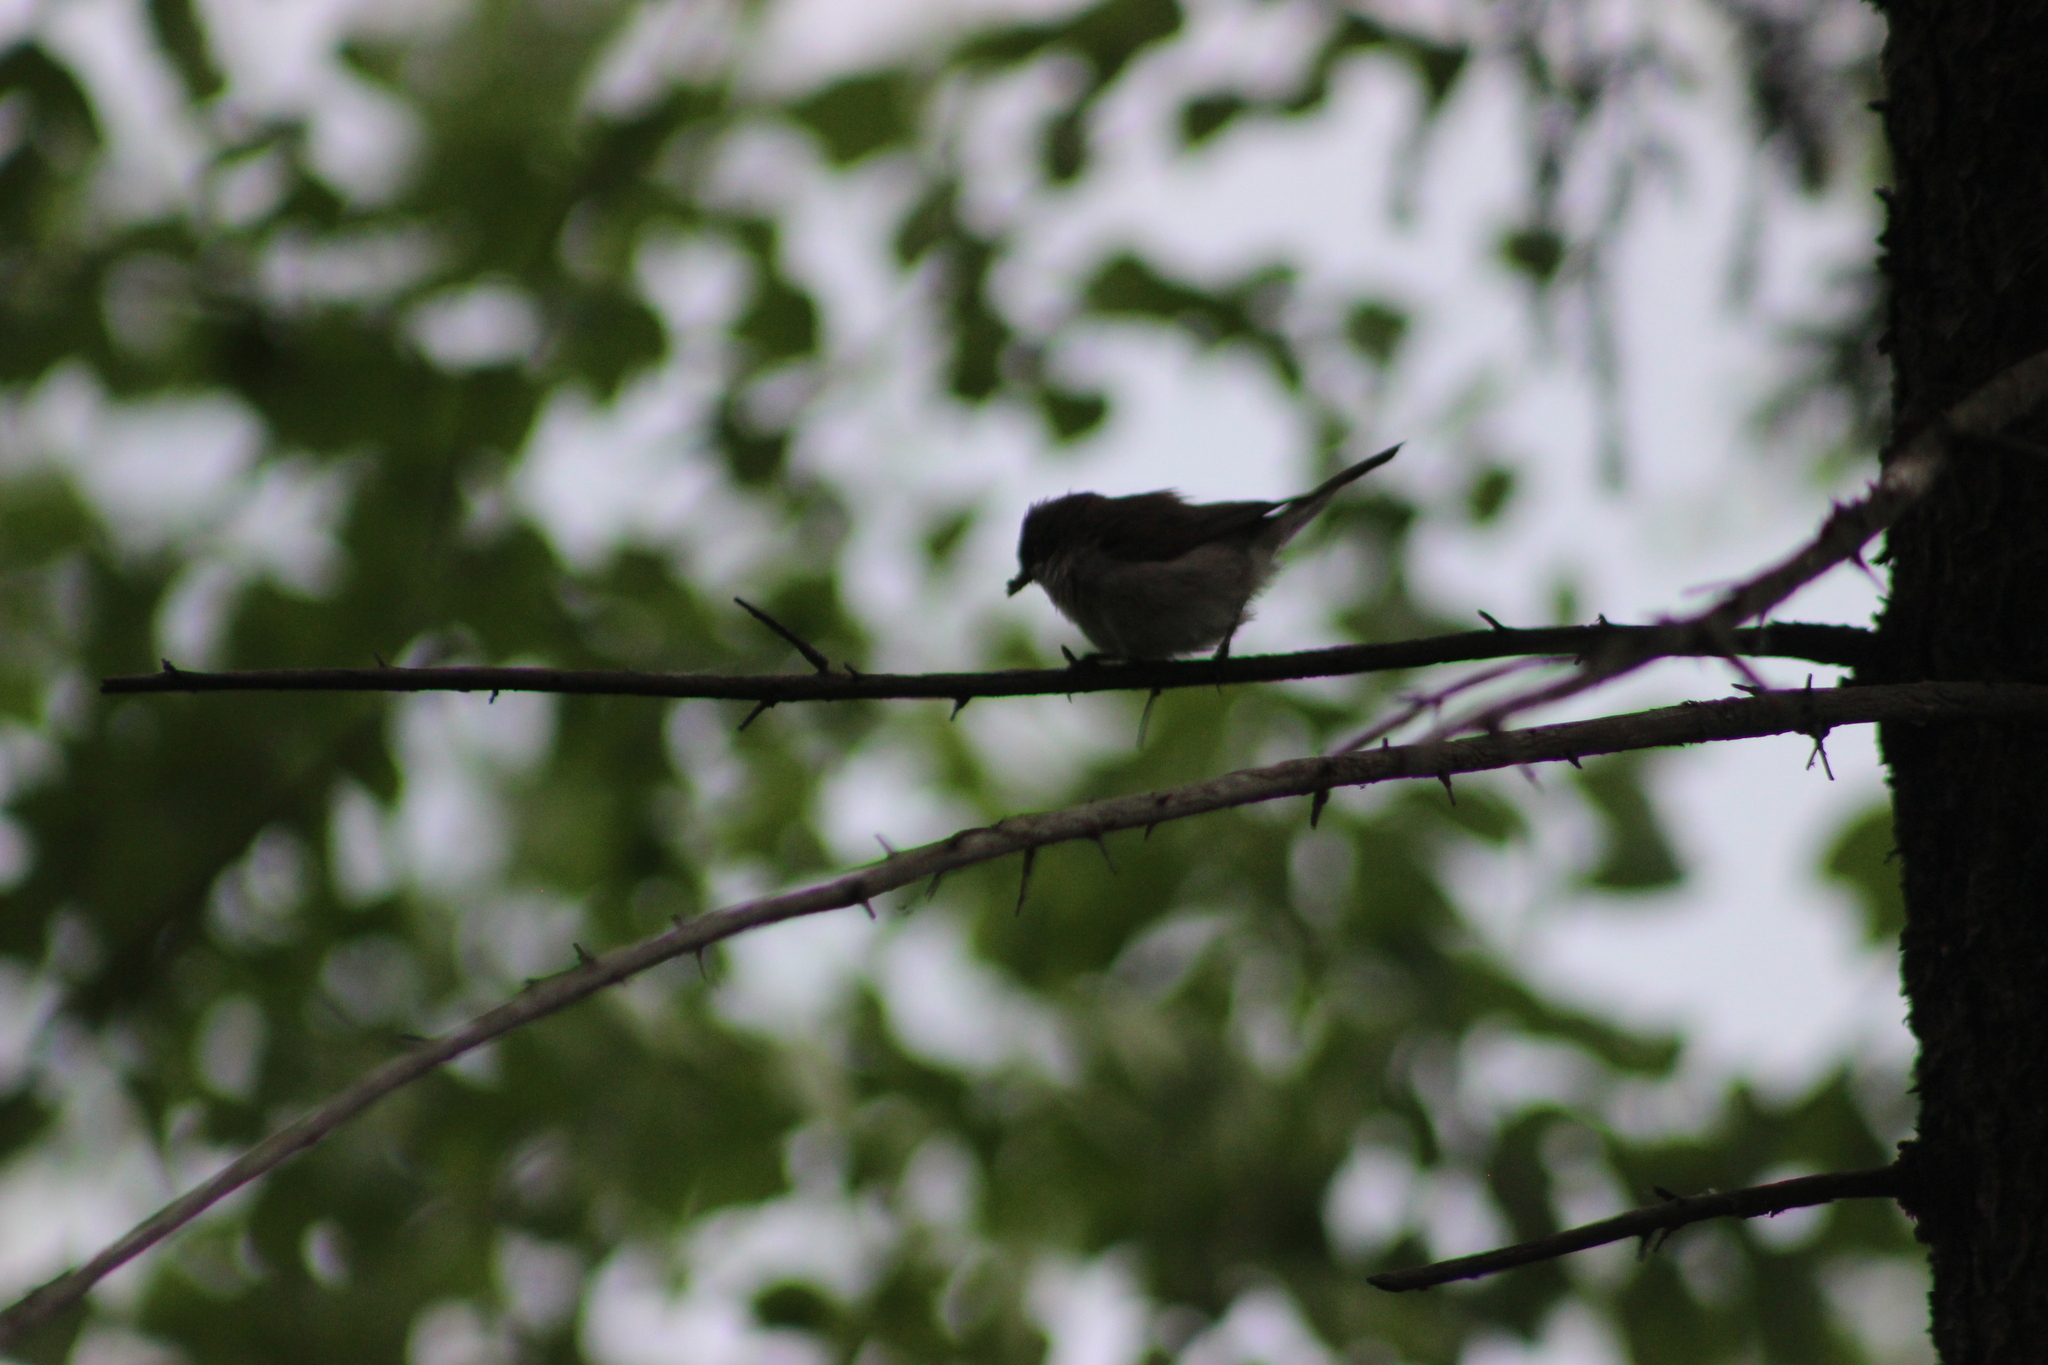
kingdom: Animalia
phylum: Chordata
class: Aves
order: Passeriformes
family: Sylviidae
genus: Sylvia
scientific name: Sylvia curruca
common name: Lesser whitethroat
